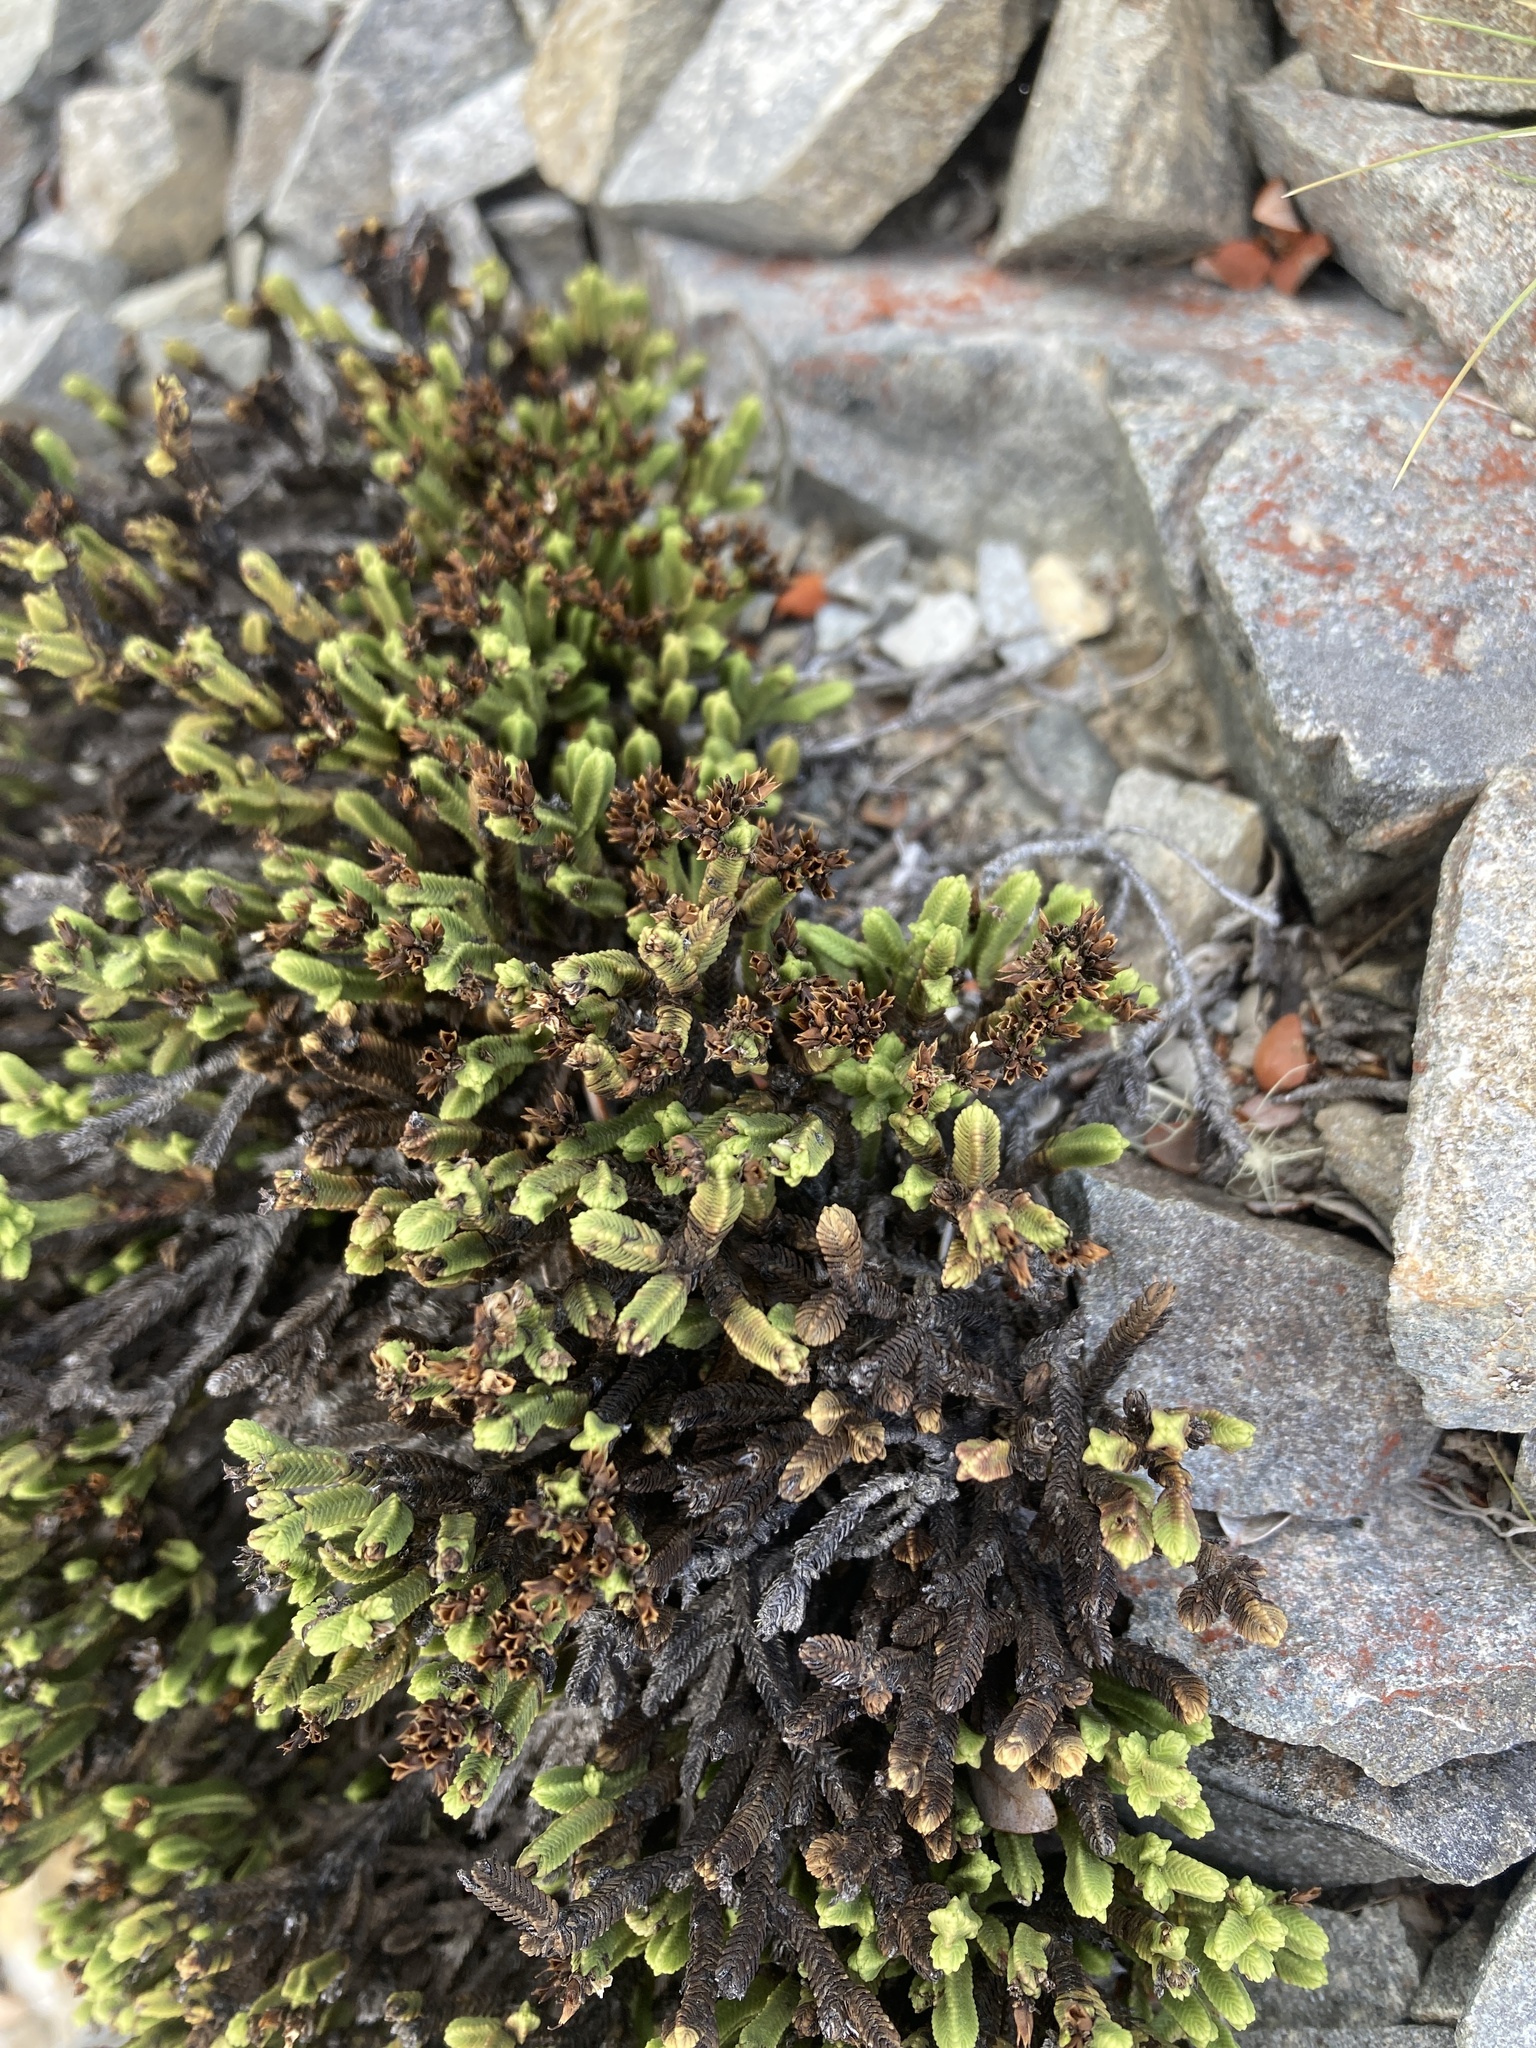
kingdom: Plantae
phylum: Tracheophyta
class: Magnoliopsida
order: Lamiales
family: Plantaginaceae
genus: Veronica
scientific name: Veronica tetrasticha
